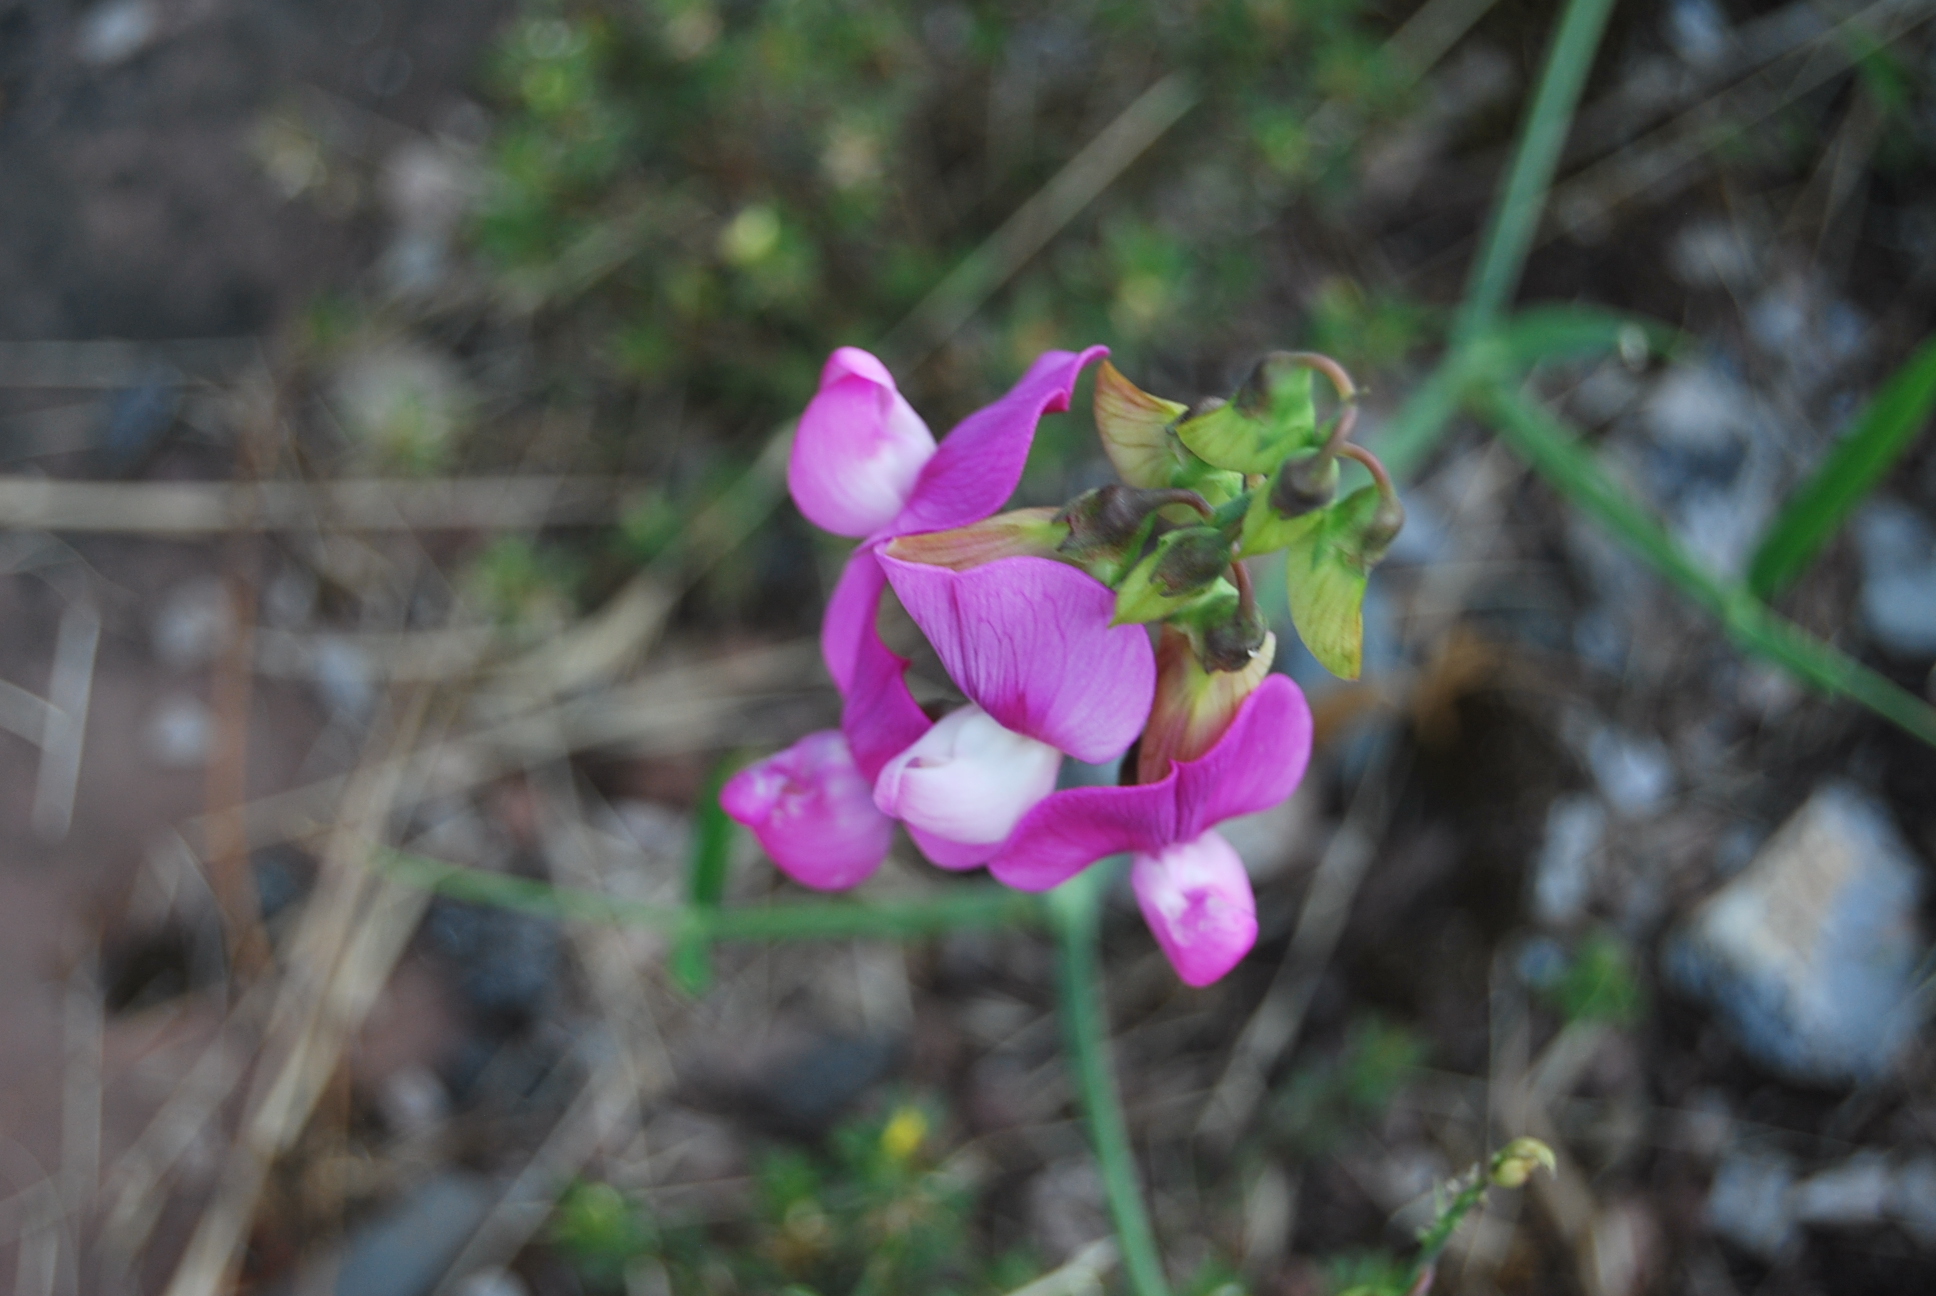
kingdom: Plantae
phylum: Tracheophyta
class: Magnoliopsida
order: Fabales
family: Fabaceae
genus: Lathyrus
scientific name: Lathyrus latifolius
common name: Perennial pea
